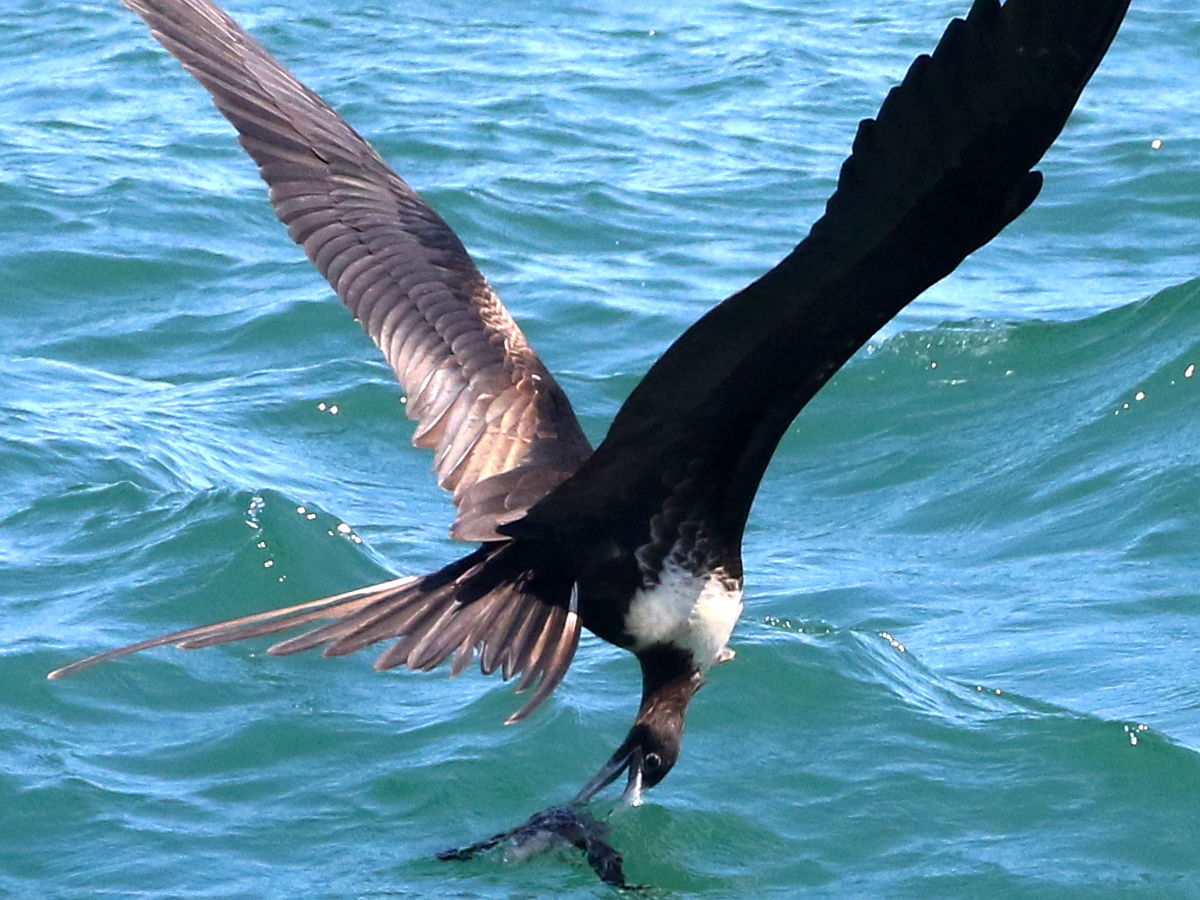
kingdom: Animalia
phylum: Chordata
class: Aves
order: Suliformes
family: Fregatidae
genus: Fregata
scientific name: Fregata magnificens
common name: Magnificent frigatebird
